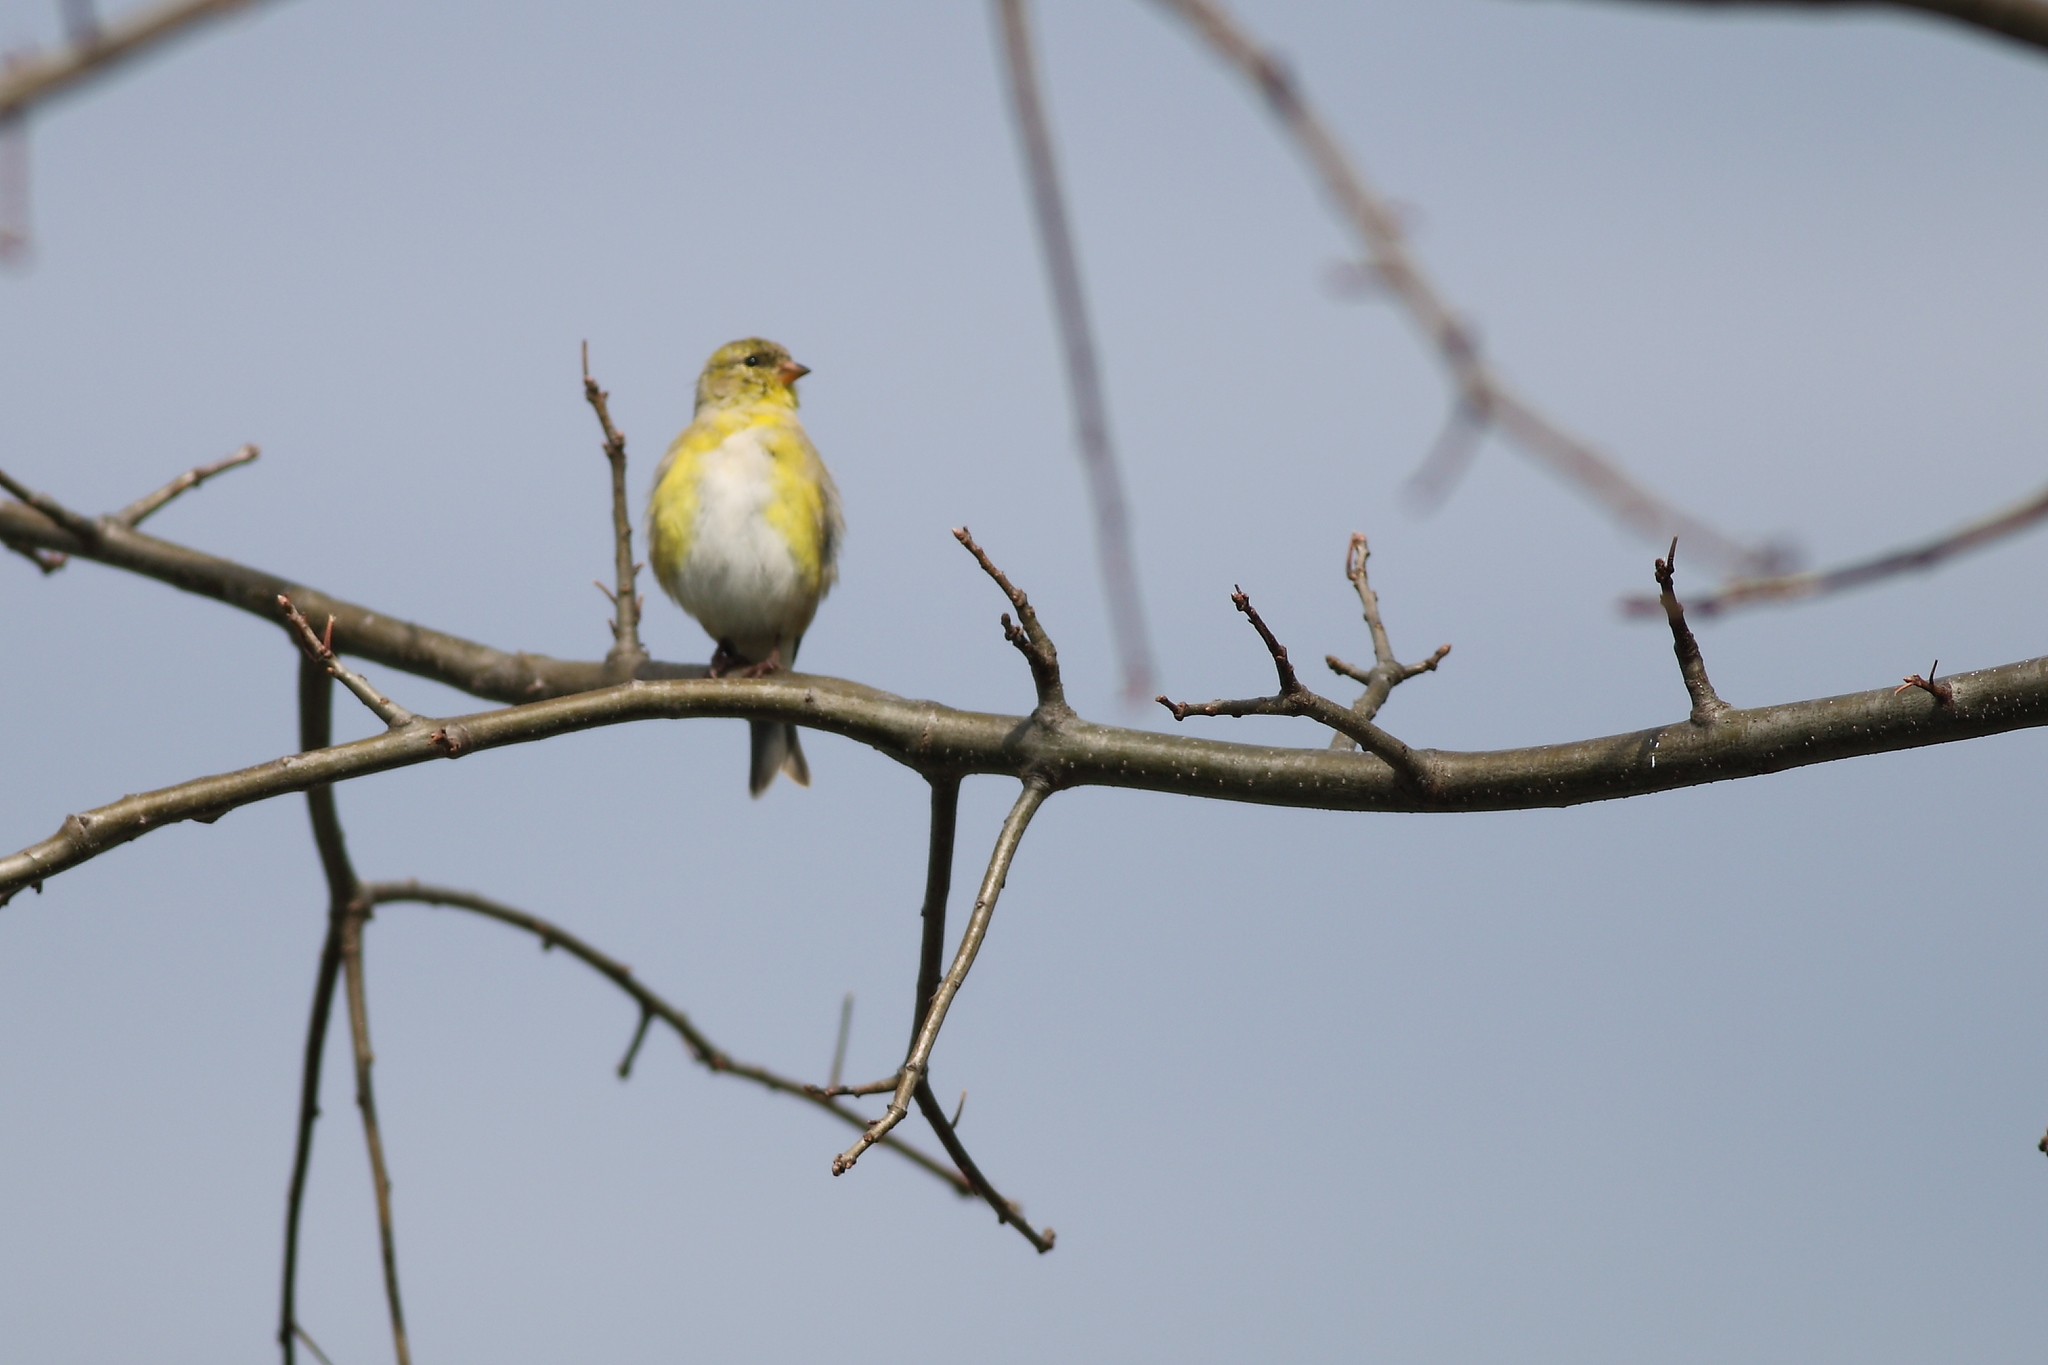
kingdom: Animalia
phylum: Chordata
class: Aves
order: Passeriformes
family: Fringillidae
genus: Spinus
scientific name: Spinus tristis
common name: American goldfinch
